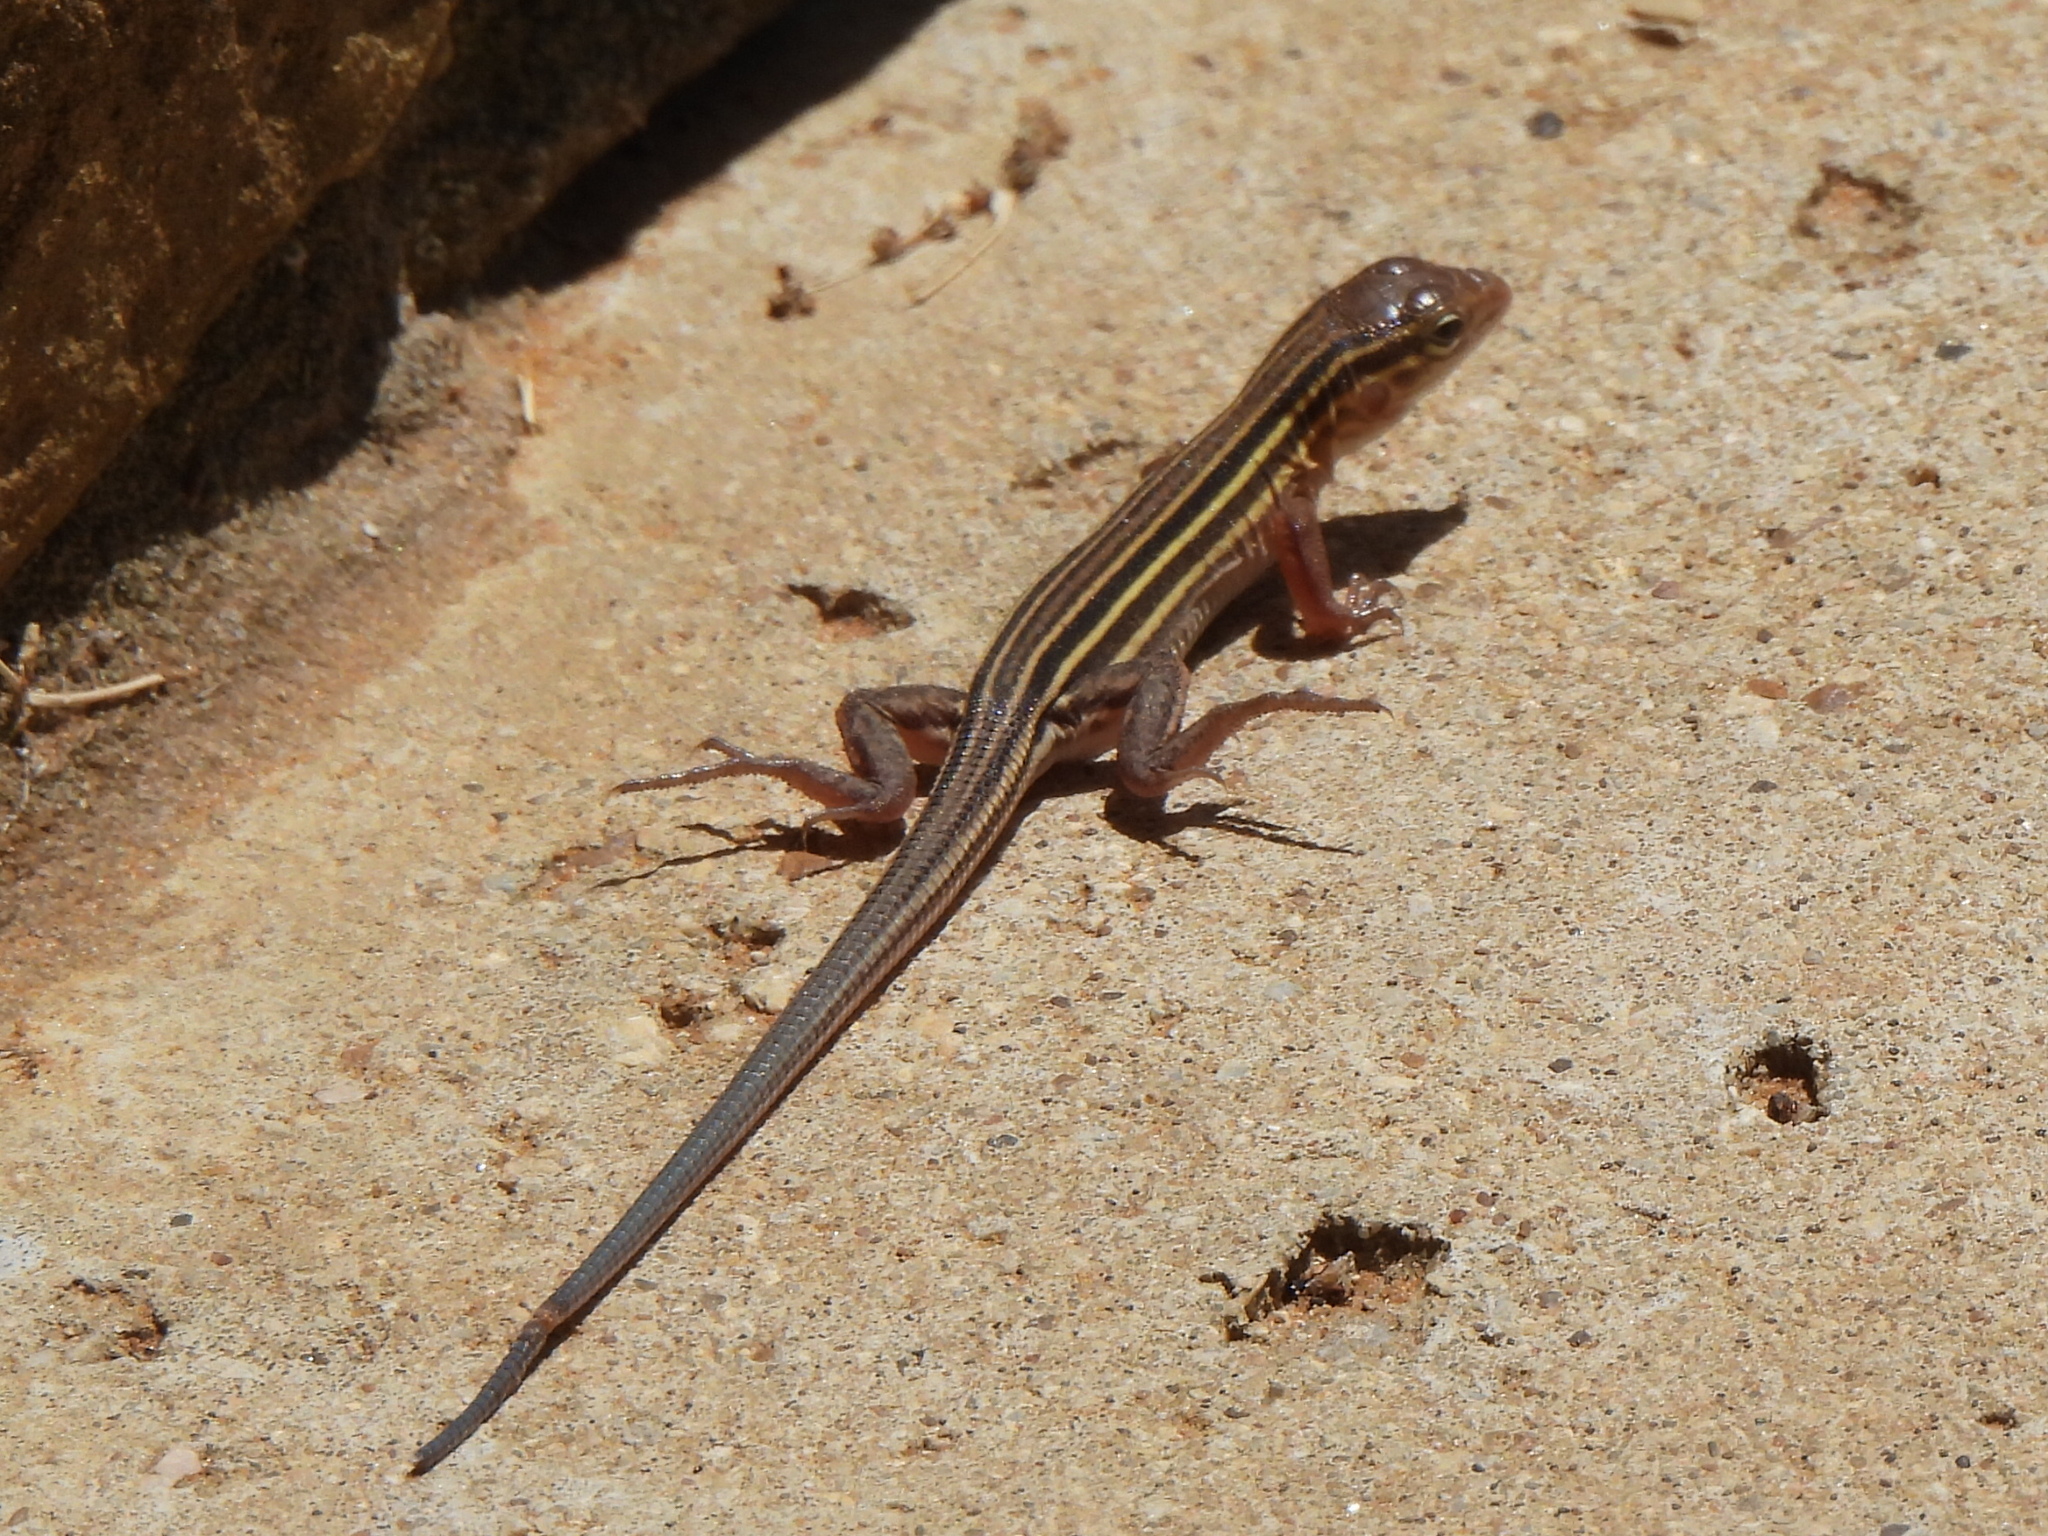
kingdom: Animalia
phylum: Chordata
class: Squamata
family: Teiidae
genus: Aspidoscelis
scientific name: Aspidoscelis sexlineatus
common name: Six-lined racerunner
